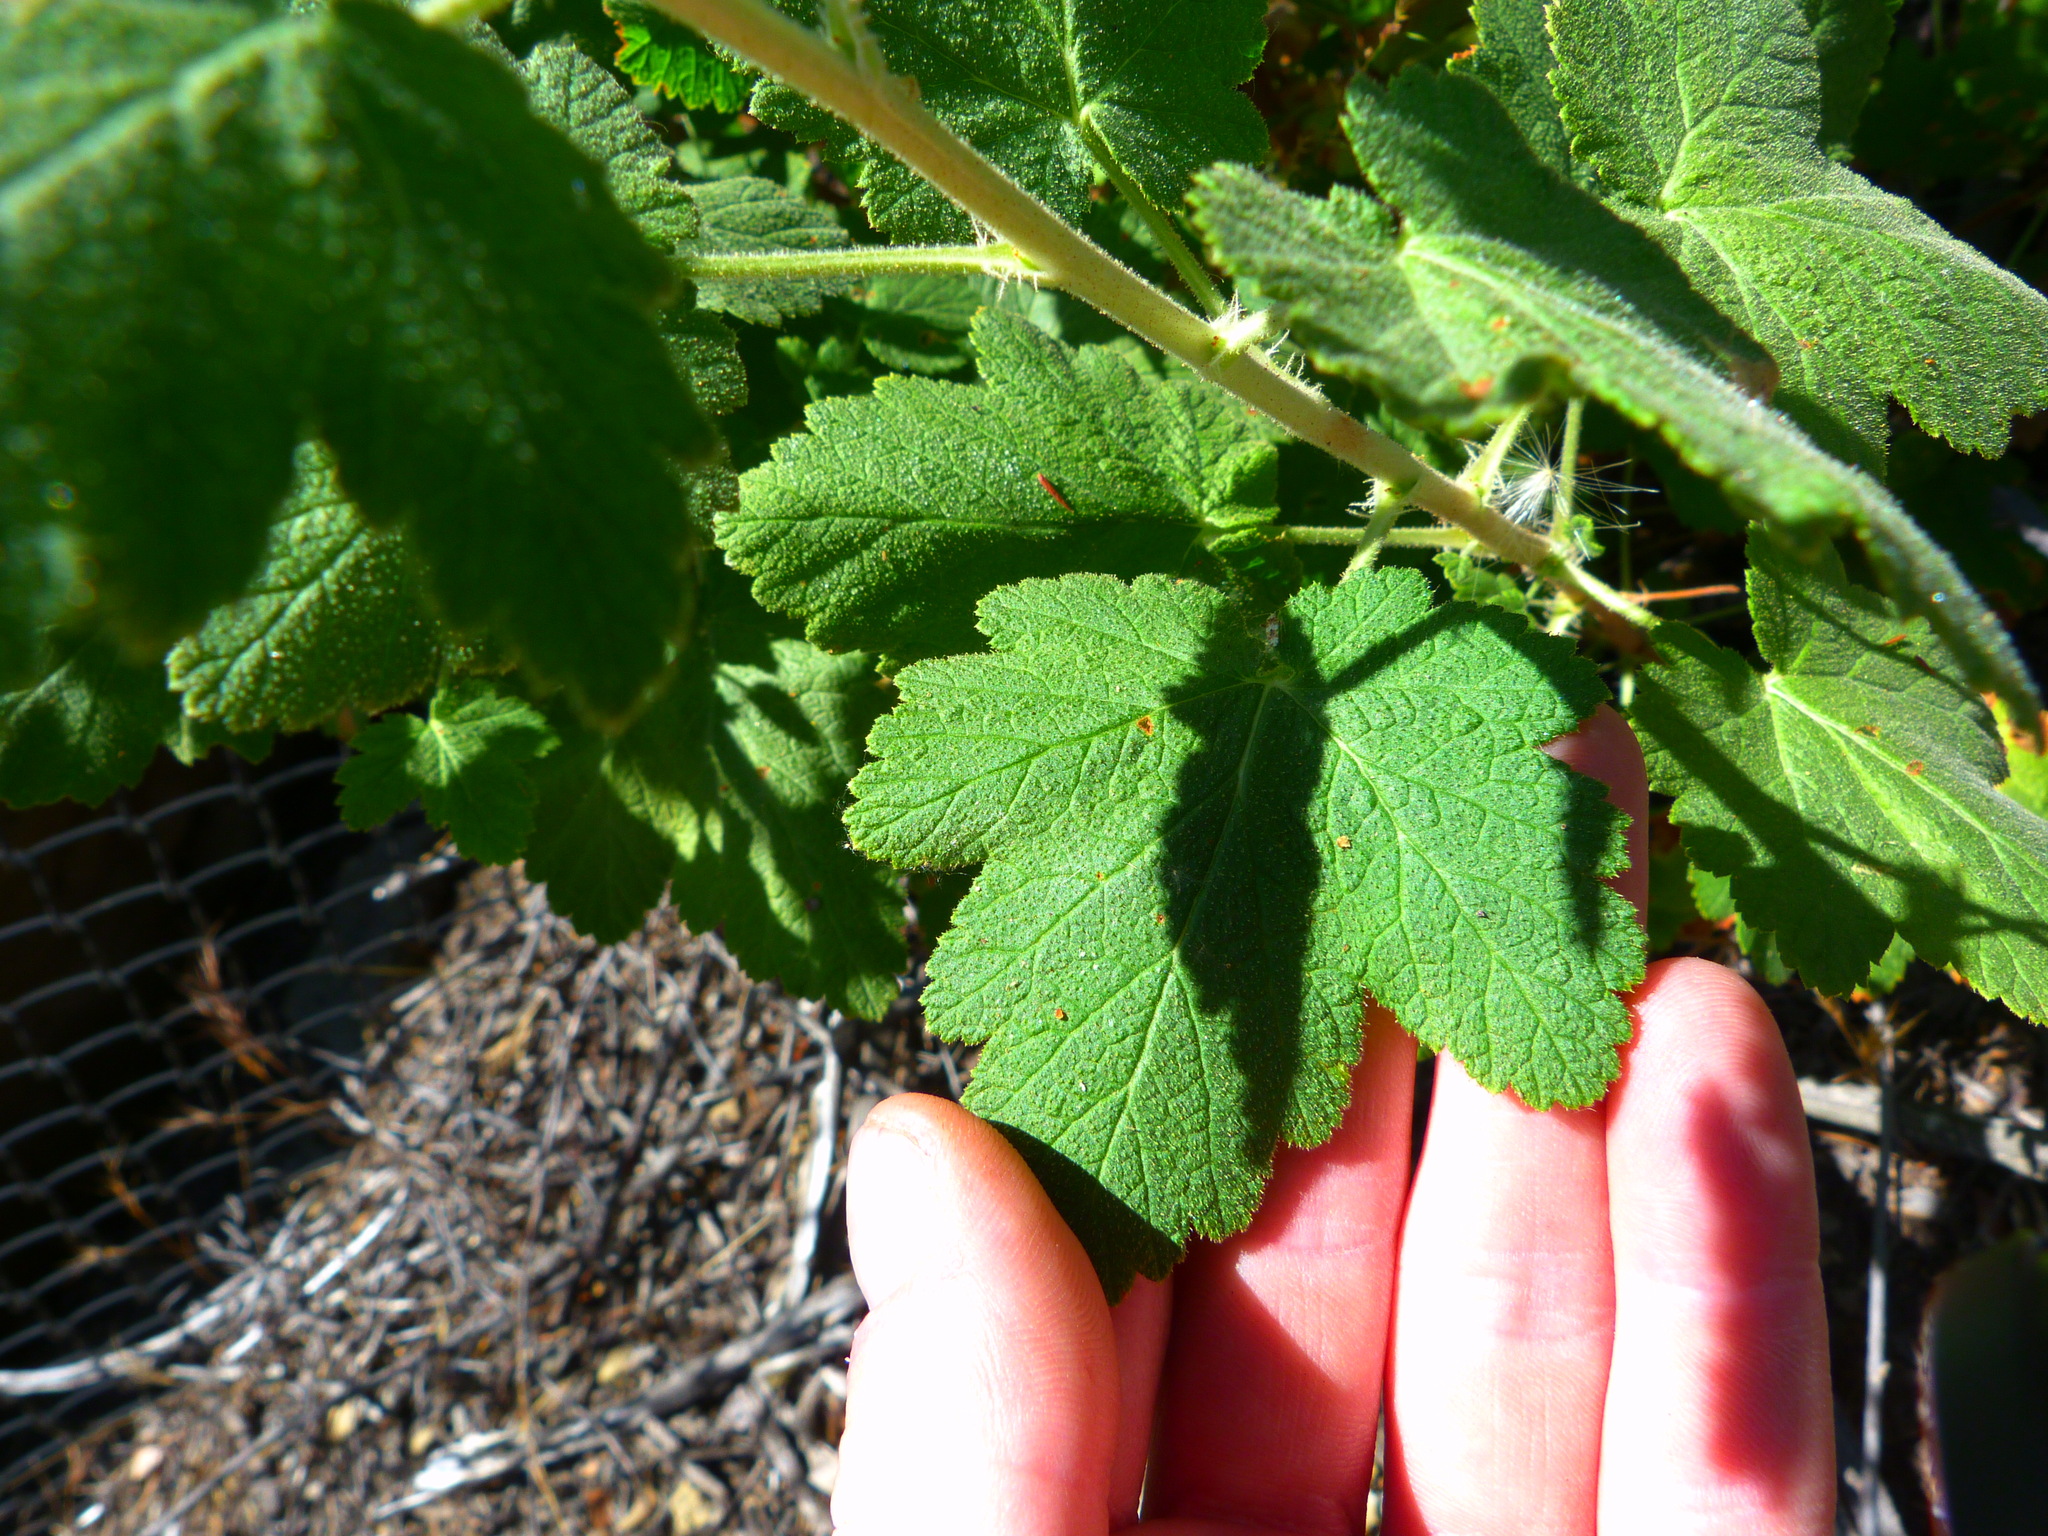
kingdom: Plantae
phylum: Tracheophyta
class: Magnoliopsida
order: Saxifragales
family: Grossulariaceae
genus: Ribes
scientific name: Ribes malvaceum
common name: Chaparral currant
